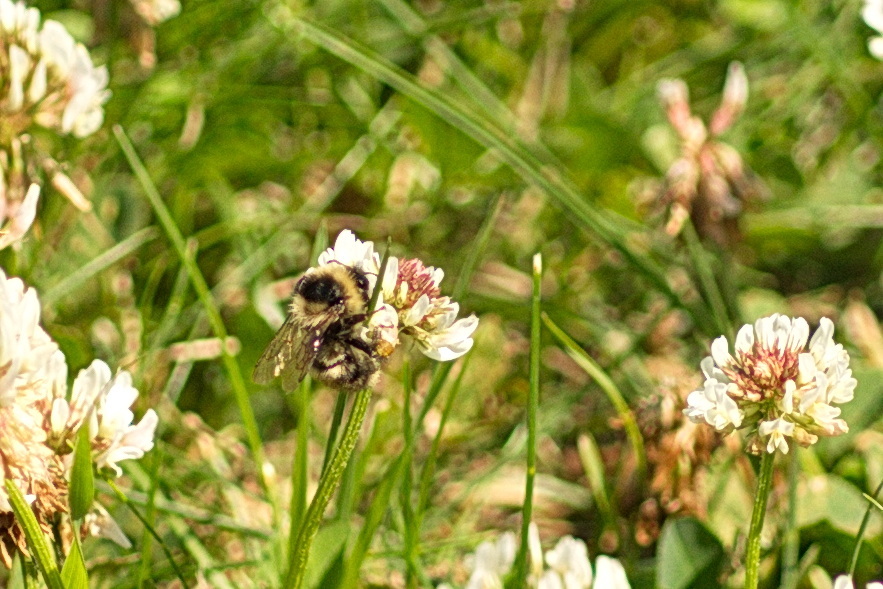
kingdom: Animalia
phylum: Arthropoda
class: Insecta
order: Hymenoptera
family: Apidae
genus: Bombus
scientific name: Bombus rufocinctus
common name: Red-belted bumble bee
